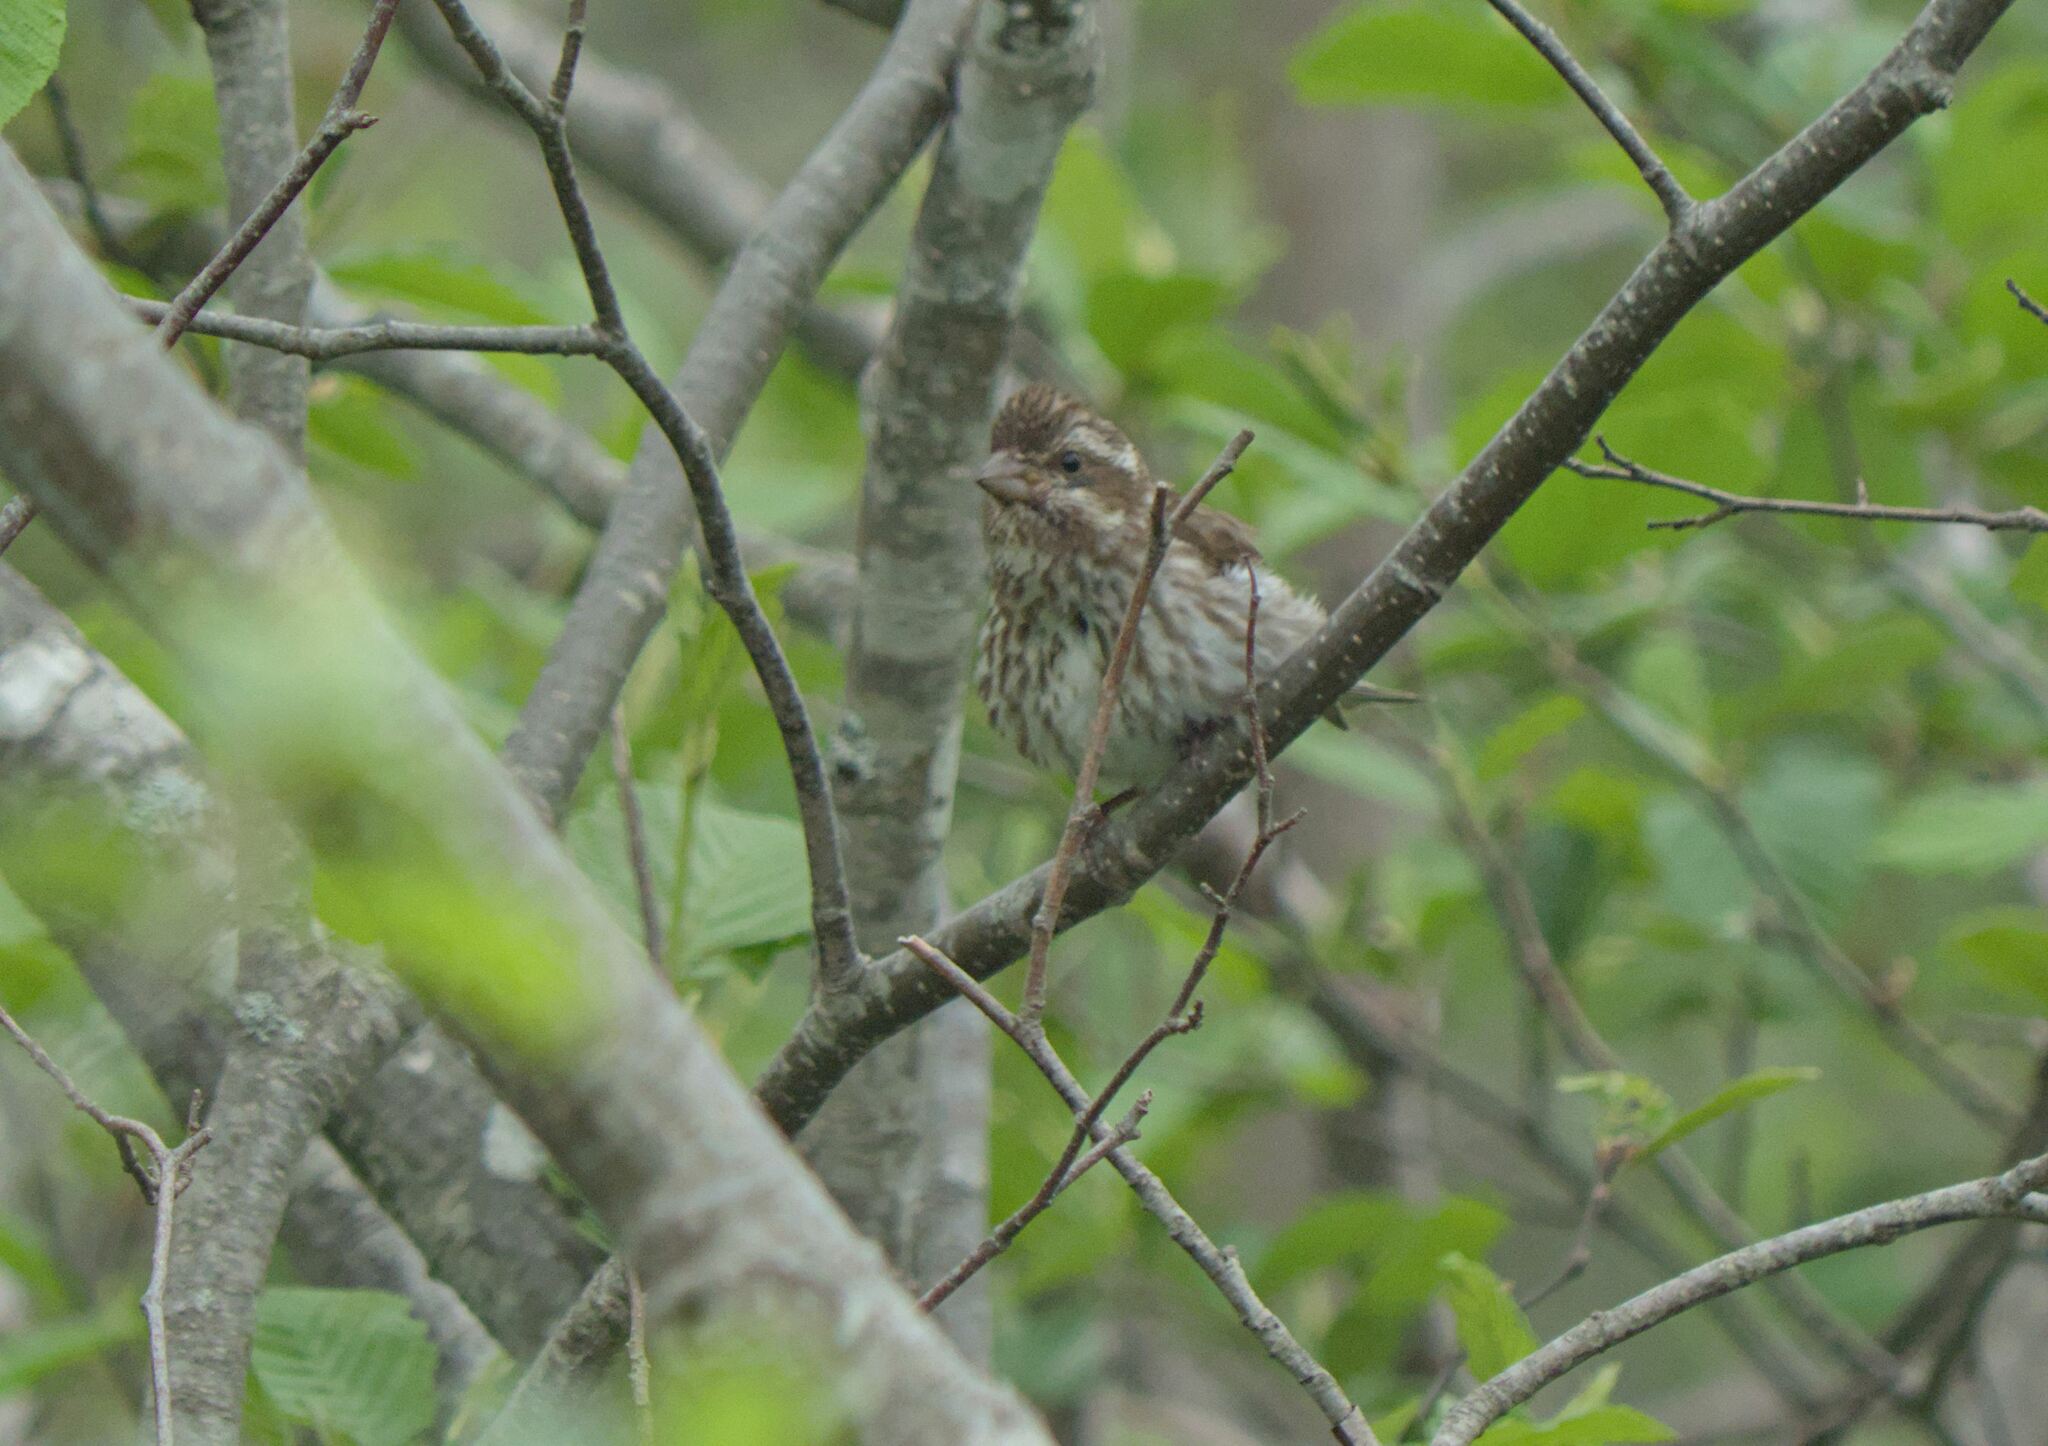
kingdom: Animalia
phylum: Chordata
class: Aves
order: Passeriformes
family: Fringillidae
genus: Haemorhous
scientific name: Haemorhous purpureus
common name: Purple finch
